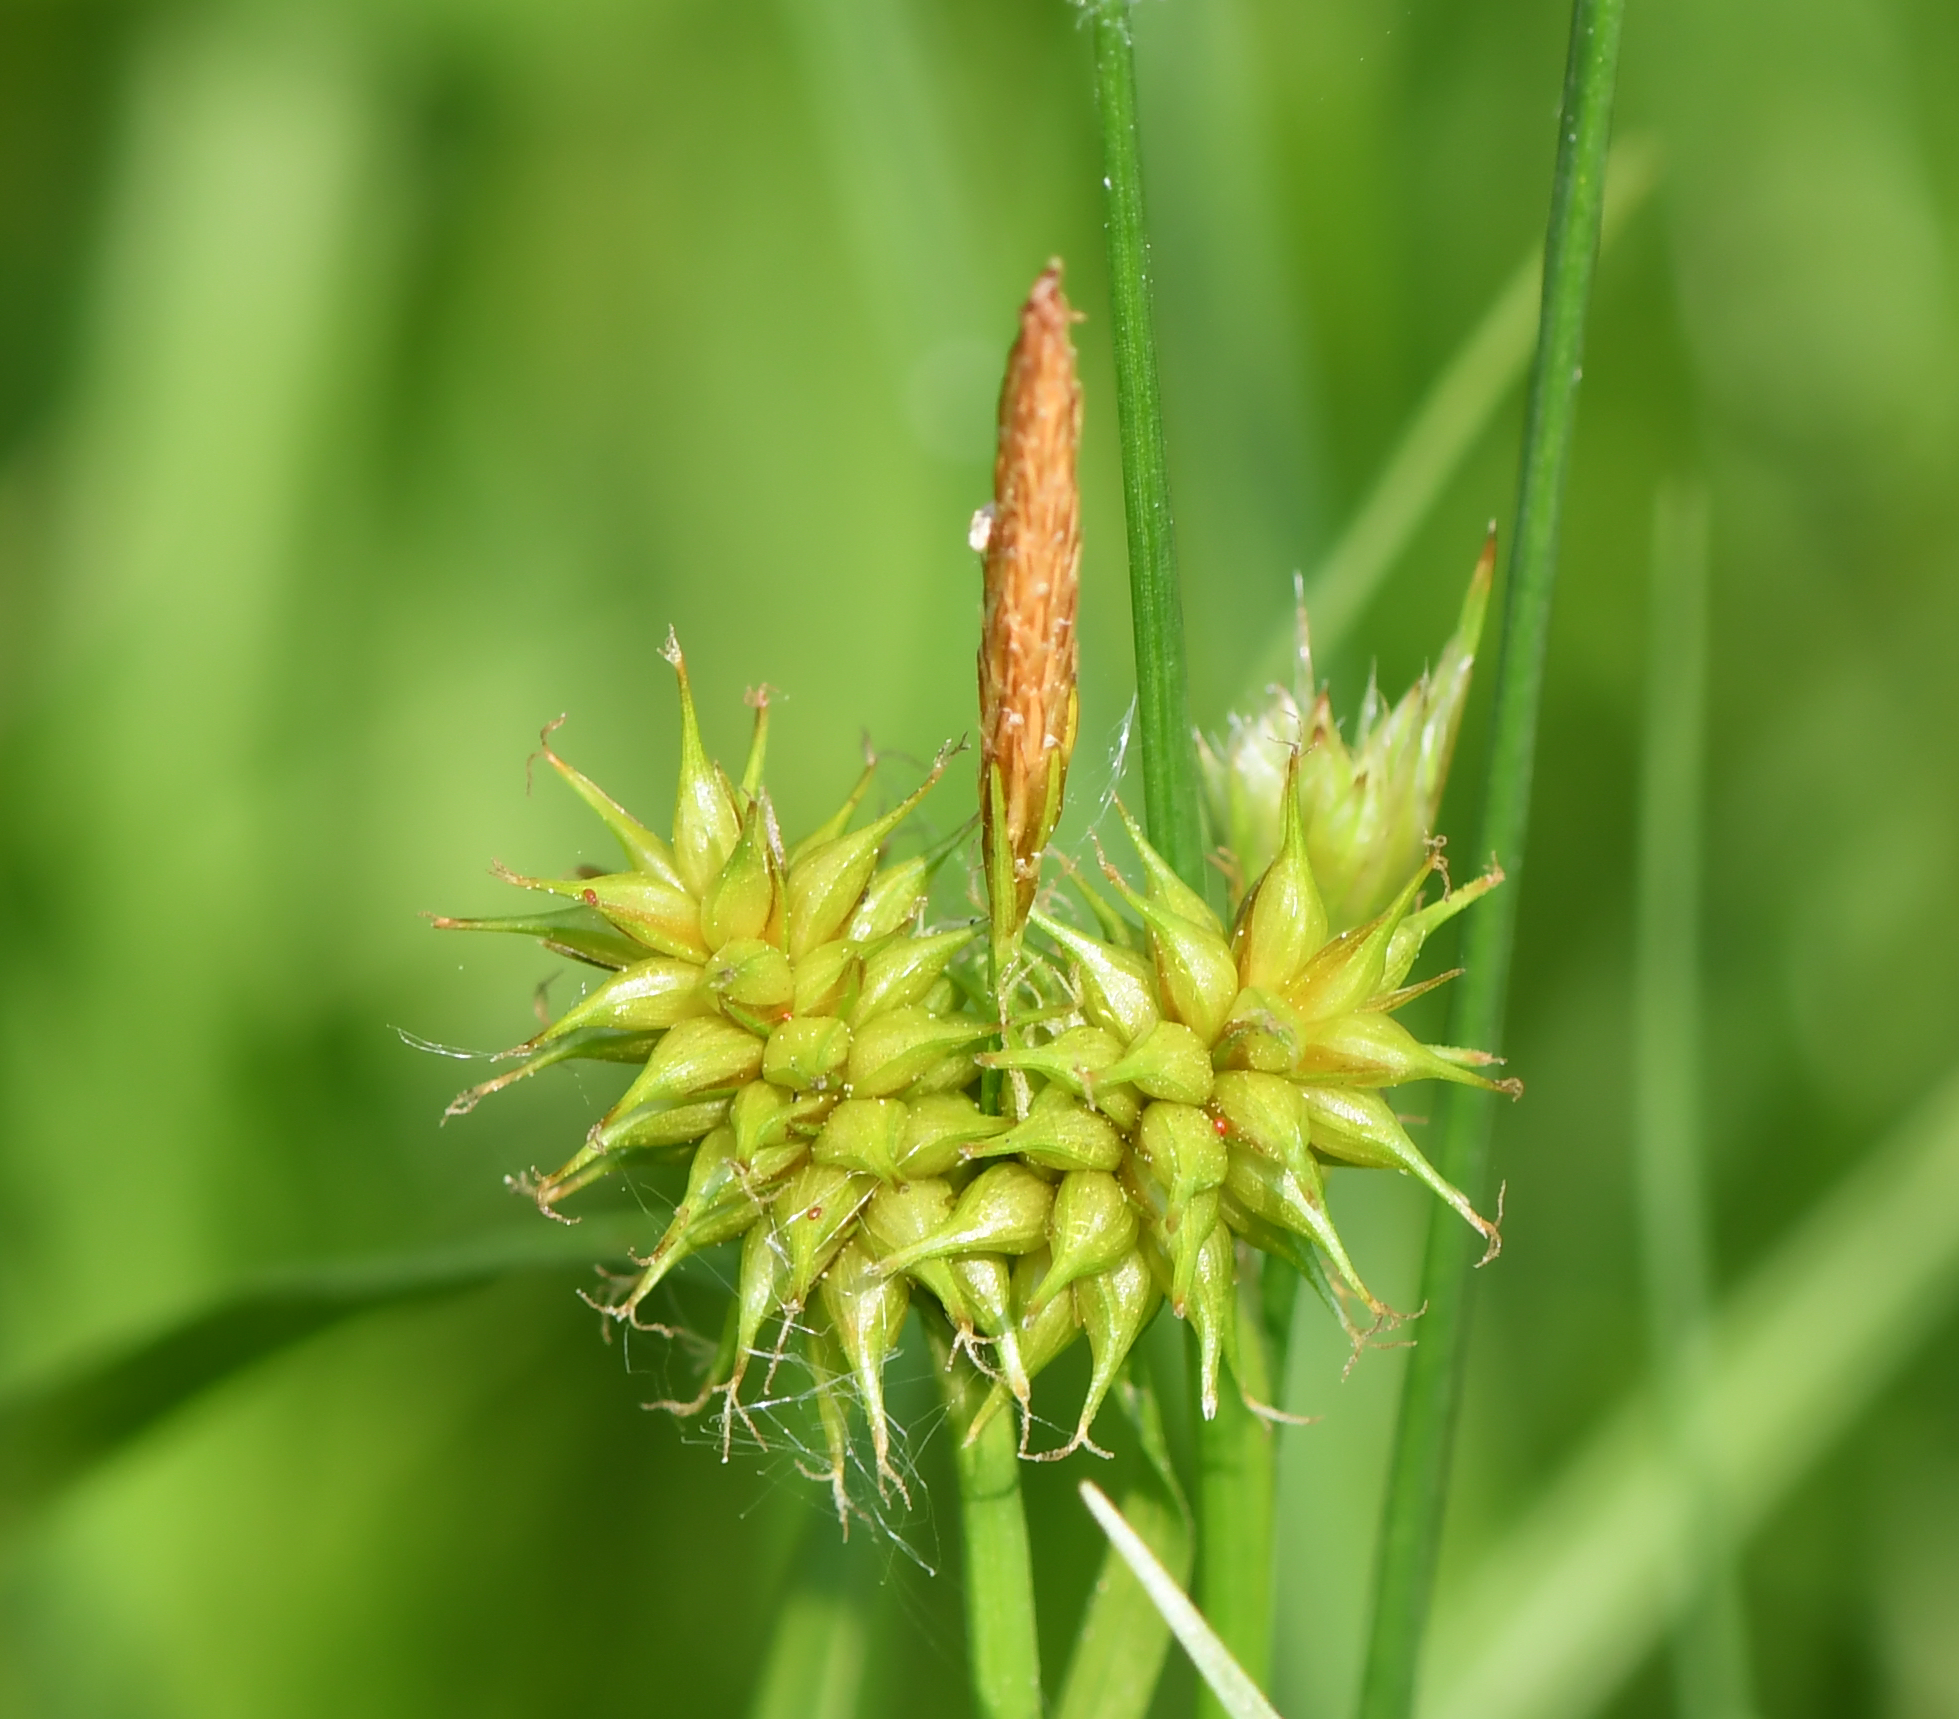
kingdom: Plantae
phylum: Tracheophyta
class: Liliopsida
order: Poales
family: Cyperaceae
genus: Carex
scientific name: Carex flava
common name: Large yellow-sedge
